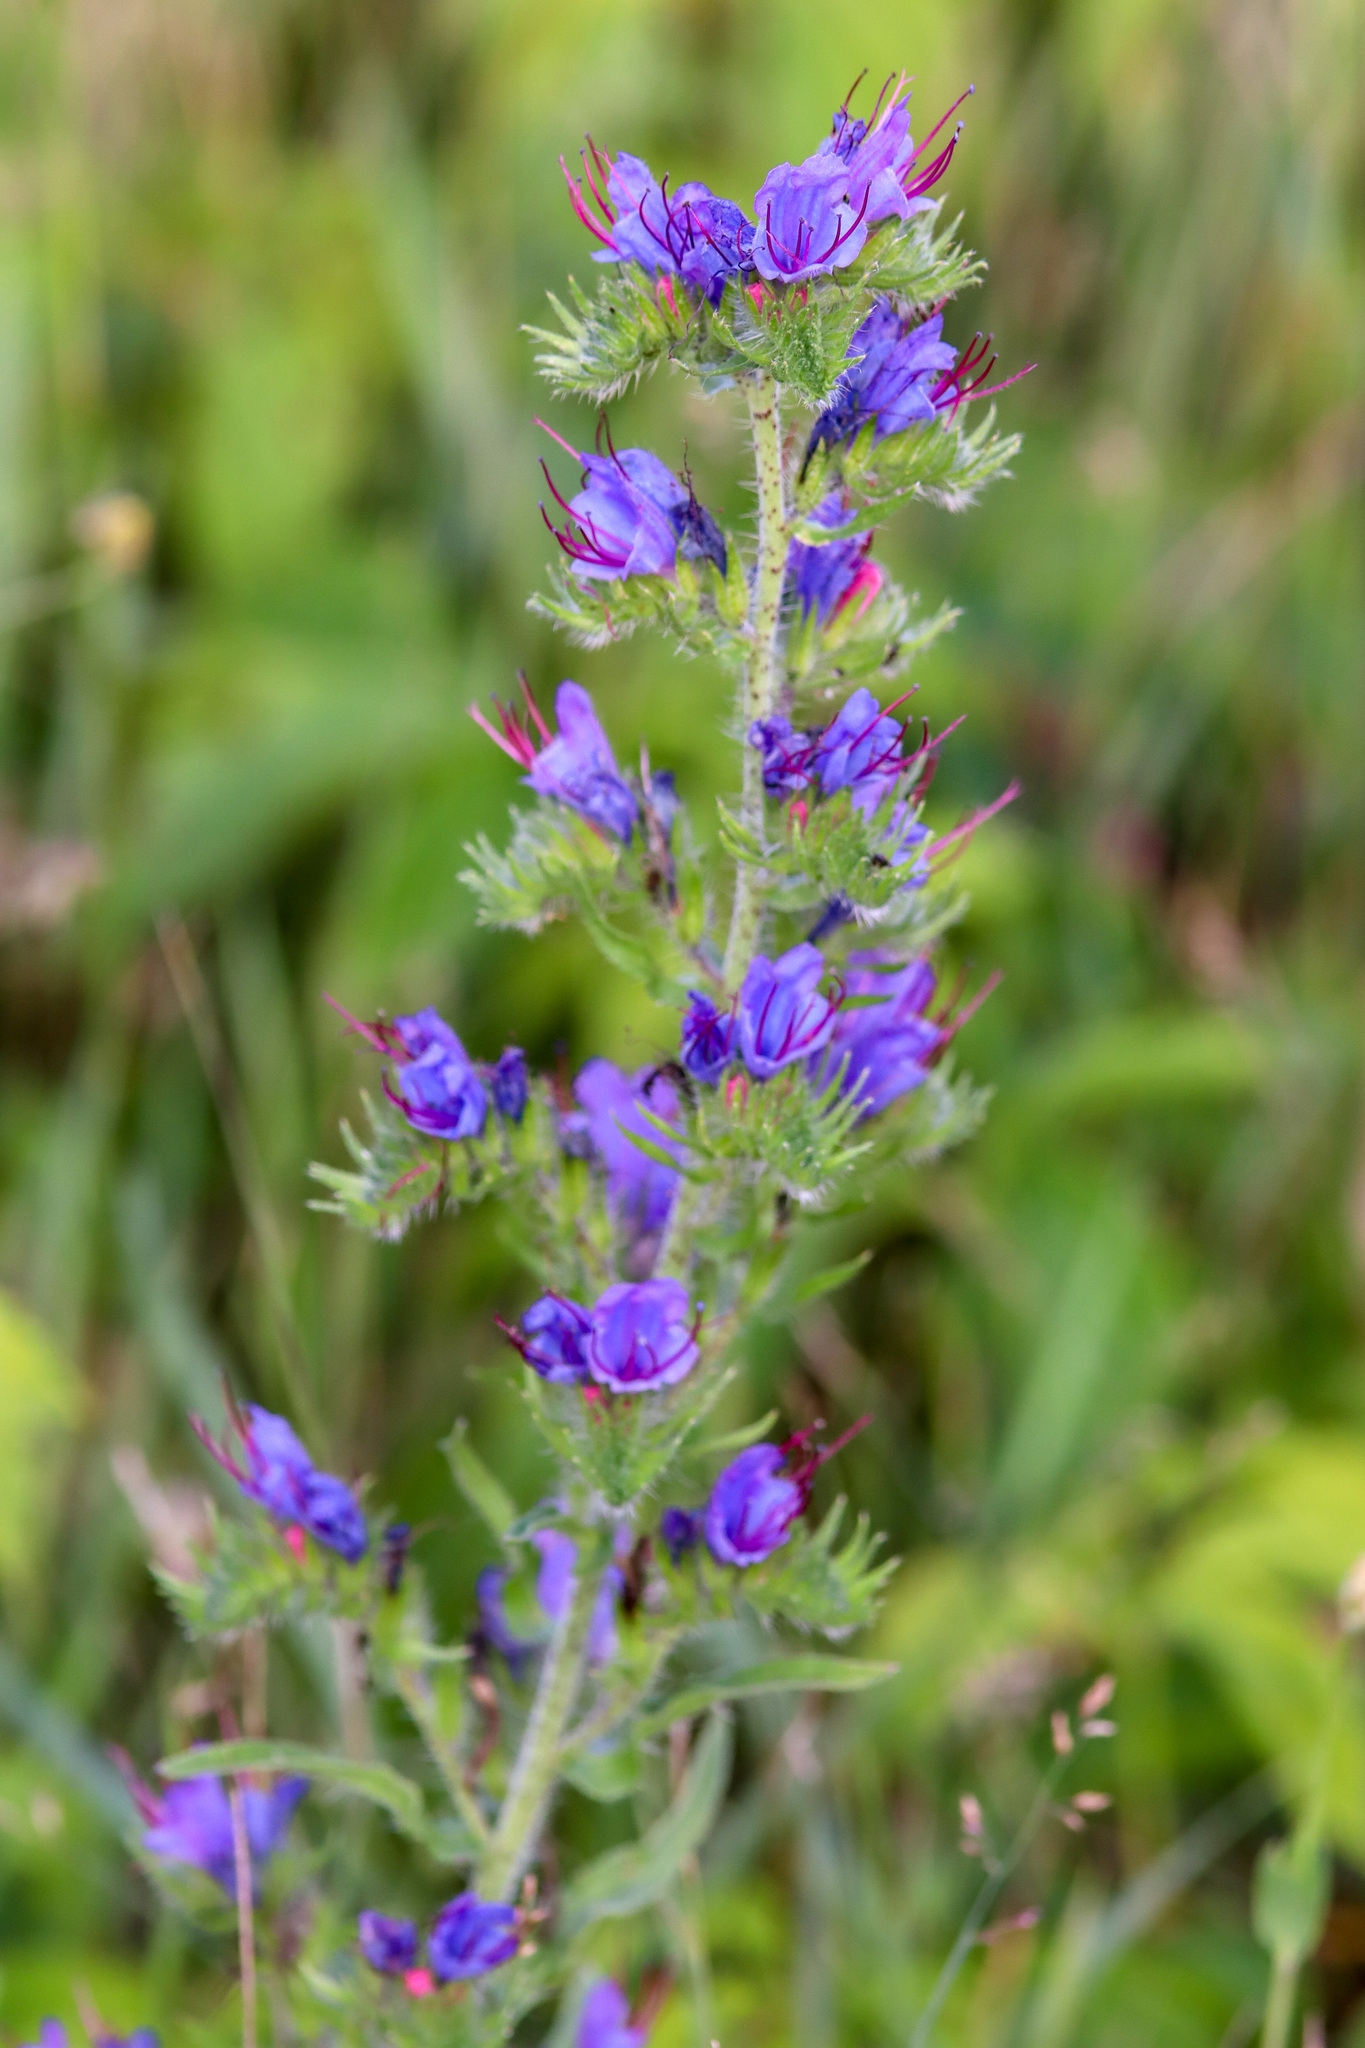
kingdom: Plantae
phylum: Tracheophyta
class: Magnoliopsida
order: Boraginales
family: Boraginaceae
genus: Echium
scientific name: Echium vulgare
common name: Common viper's bugloss
